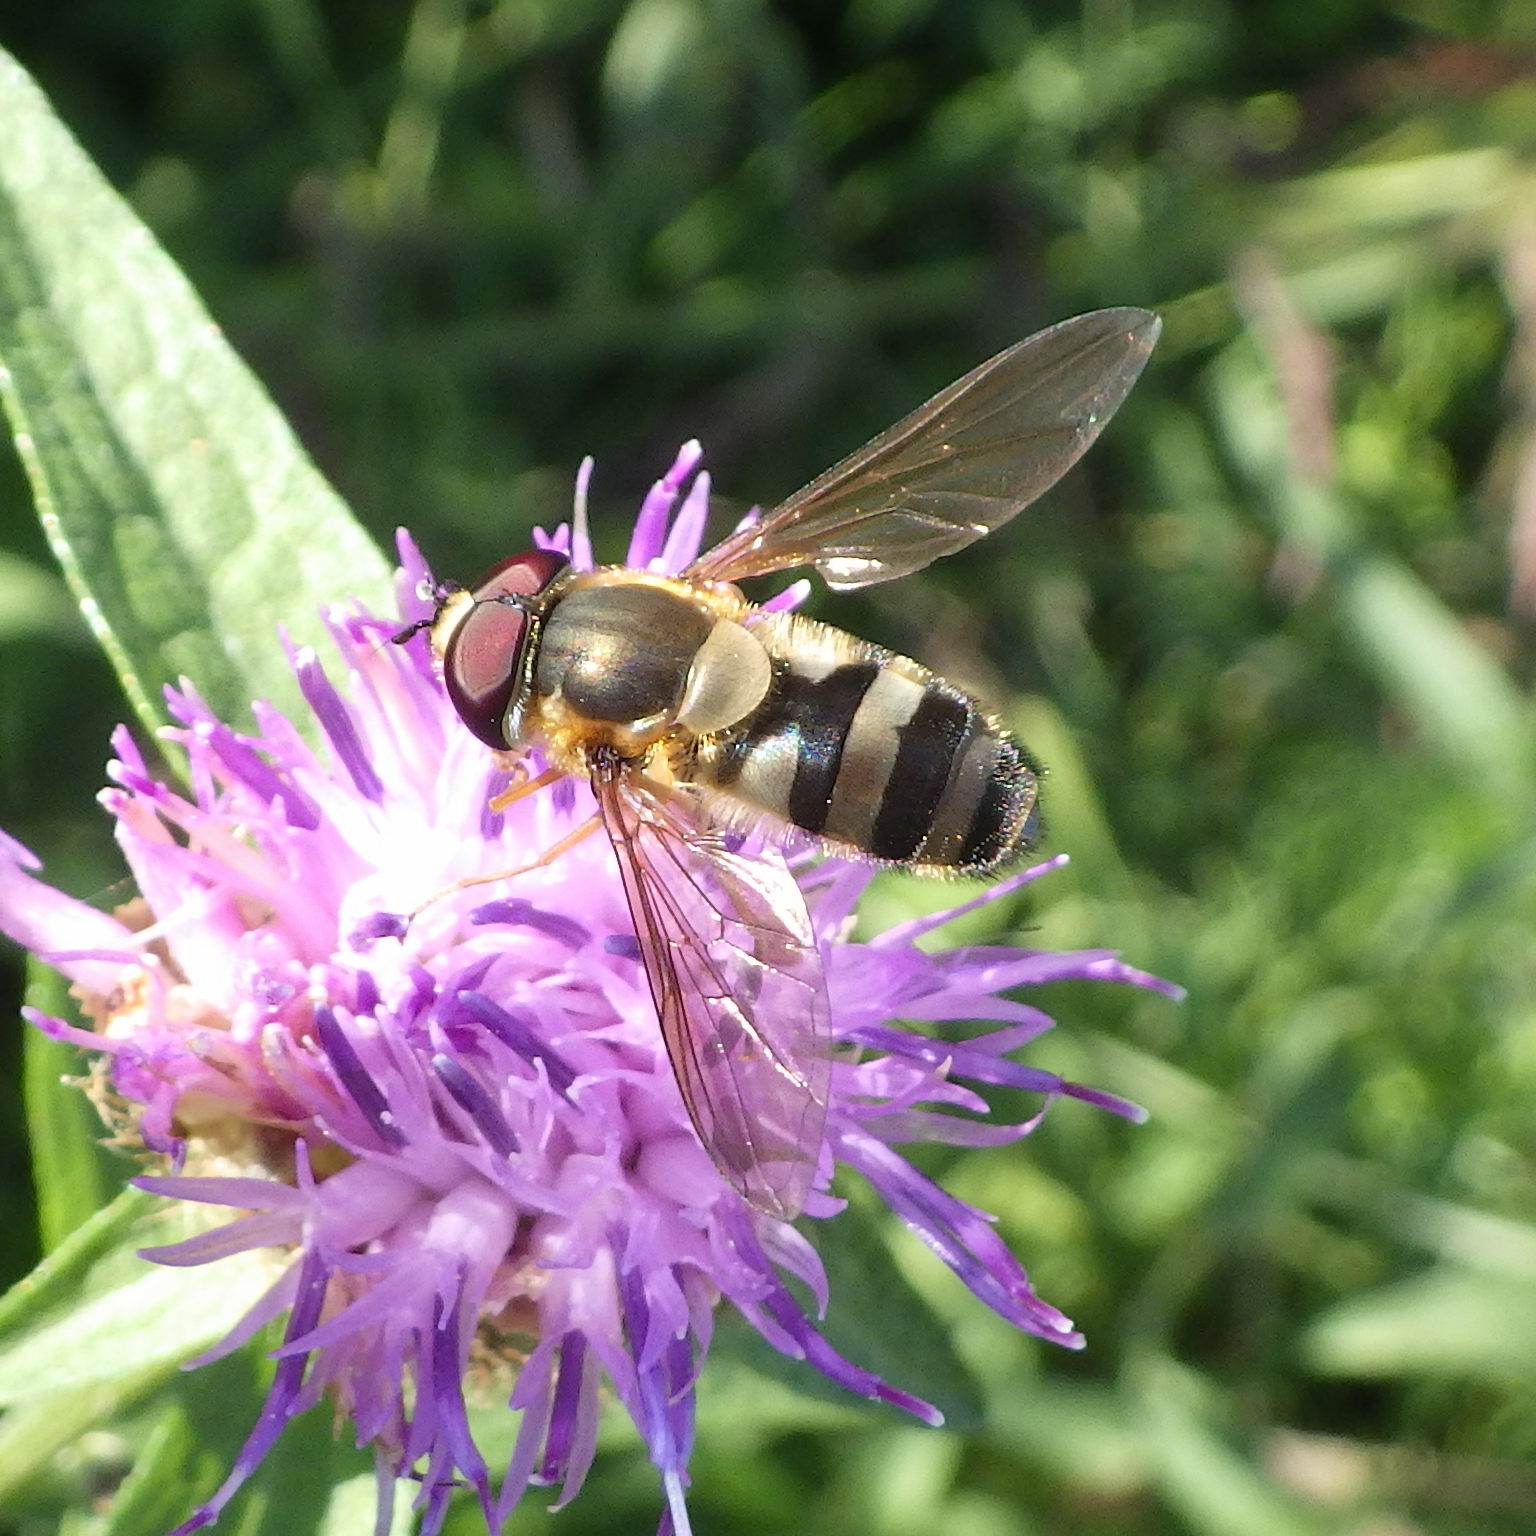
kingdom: Animalia
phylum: Arthropoda
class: Insecta
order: Diptera
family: Syrphidae
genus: Epistrophe
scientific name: Epistrophe grossulariae
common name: Black-horned smoothtail
